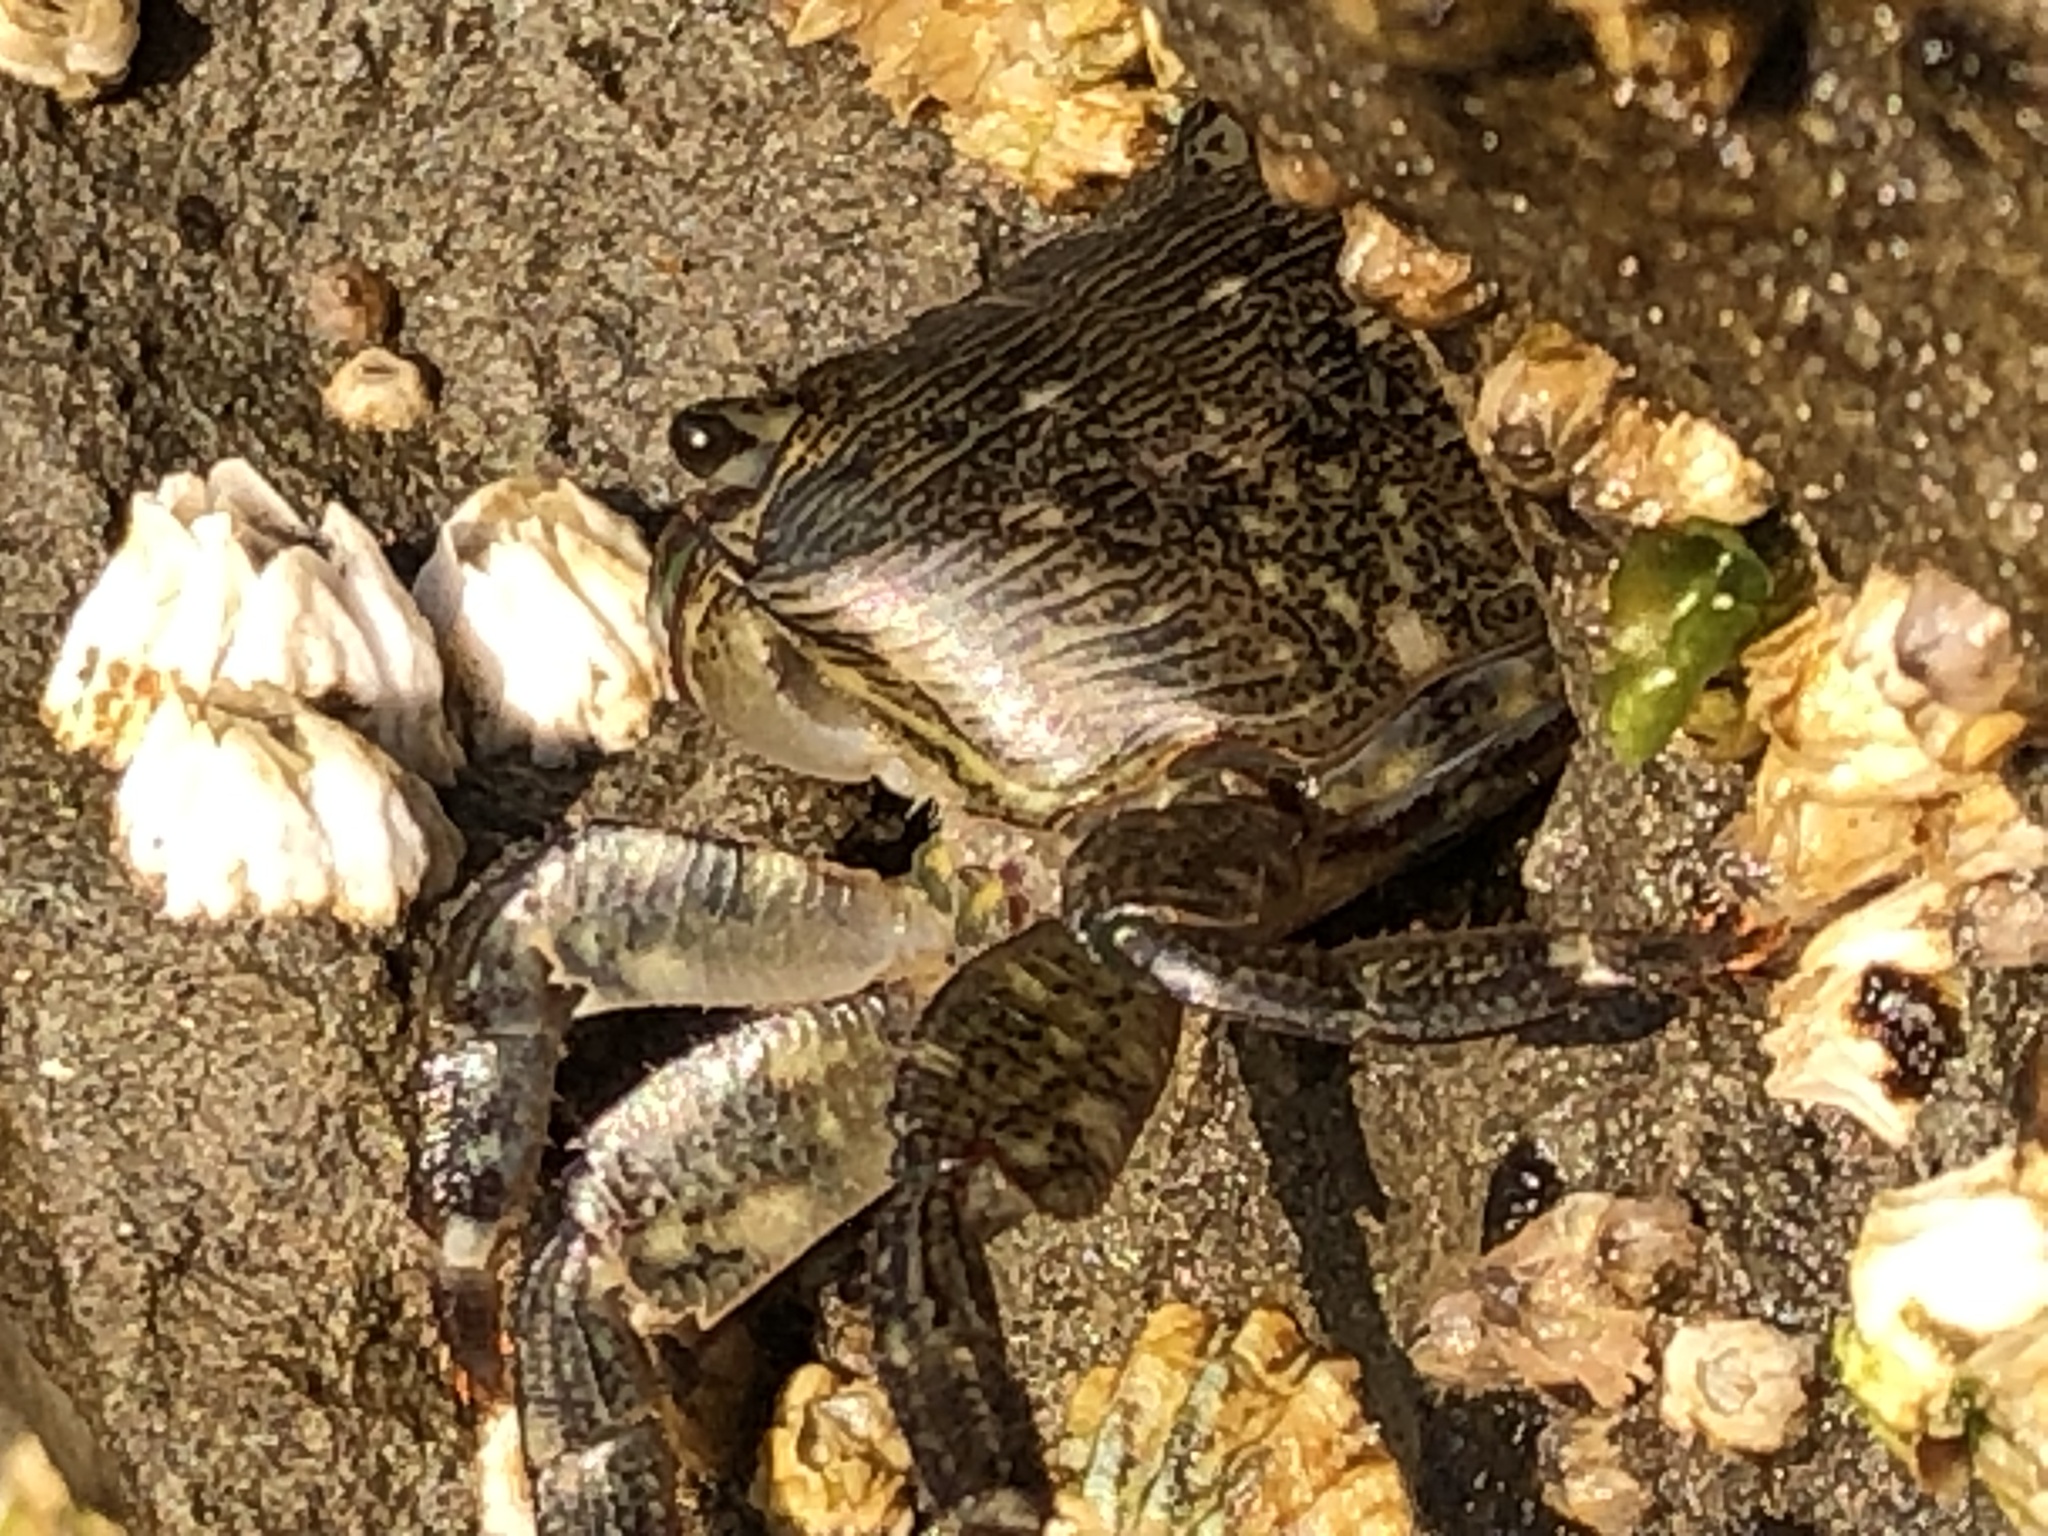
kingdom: Animalia
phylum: Arthropoda
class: Malacostraca
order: Decapoda
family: Grapsidae
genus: Pachygrapsus
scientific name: Pachygrapsus crassipes
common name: Striped shore crab
